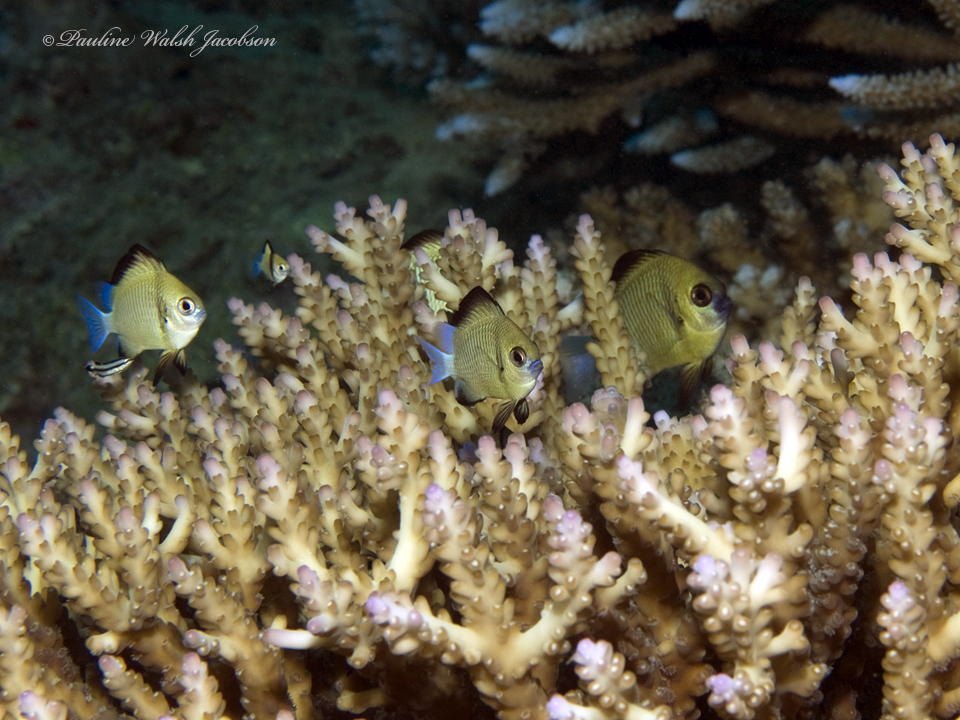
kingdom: Animalia
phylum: Chordata
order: Perciformes
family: Pomacentridae
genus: Dascyllus
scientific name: Dascyllus reticulatus
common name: Reticulated dascyllus
